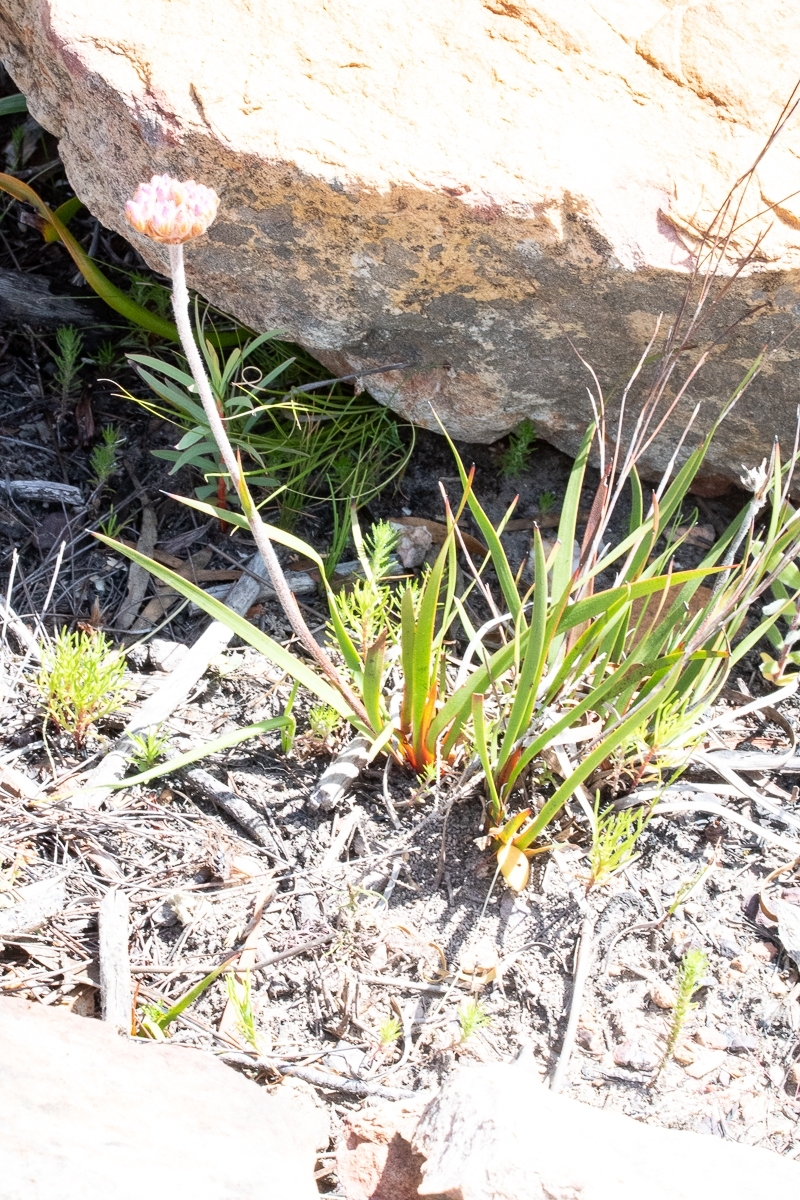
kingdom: Plantae
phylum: Tracheophyta
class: Liliopsida
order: Commelinales
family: Haemodoraceae
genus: Dilatris
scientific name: Dilatris pillansii
